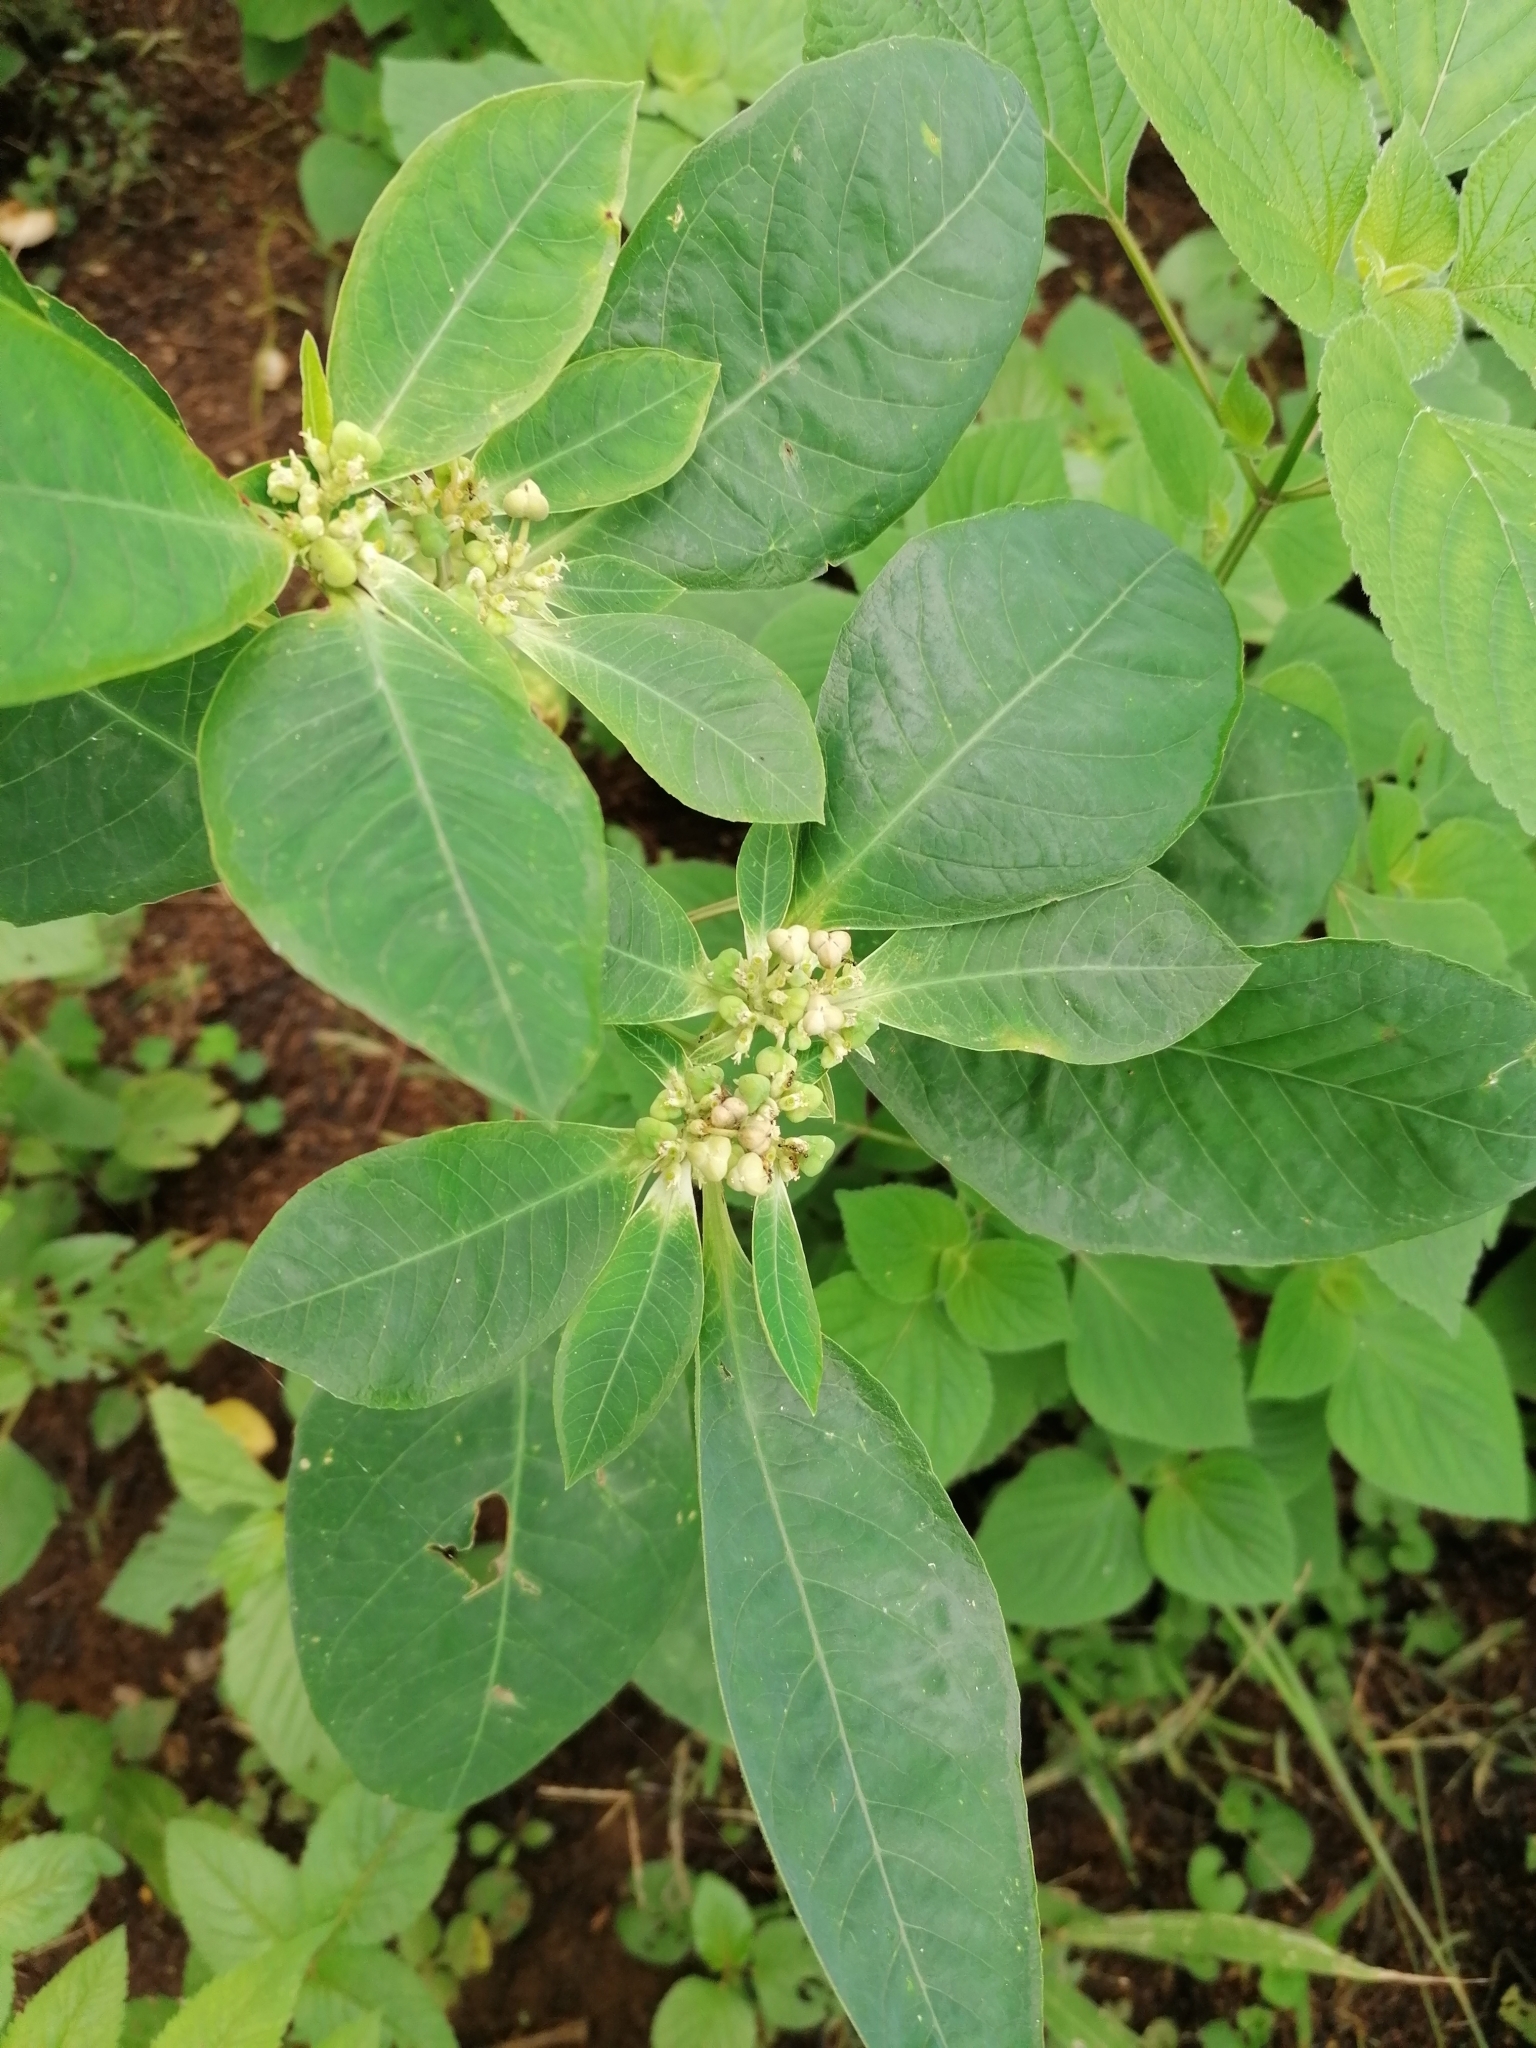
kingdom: Plantae
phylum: Tracheophyta
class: Magnoliopsida
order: Malpighiales
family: Euphorbiaceae
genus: Euphorbia
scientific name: Euphorbia heterophylla
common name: Mexican fireplant
